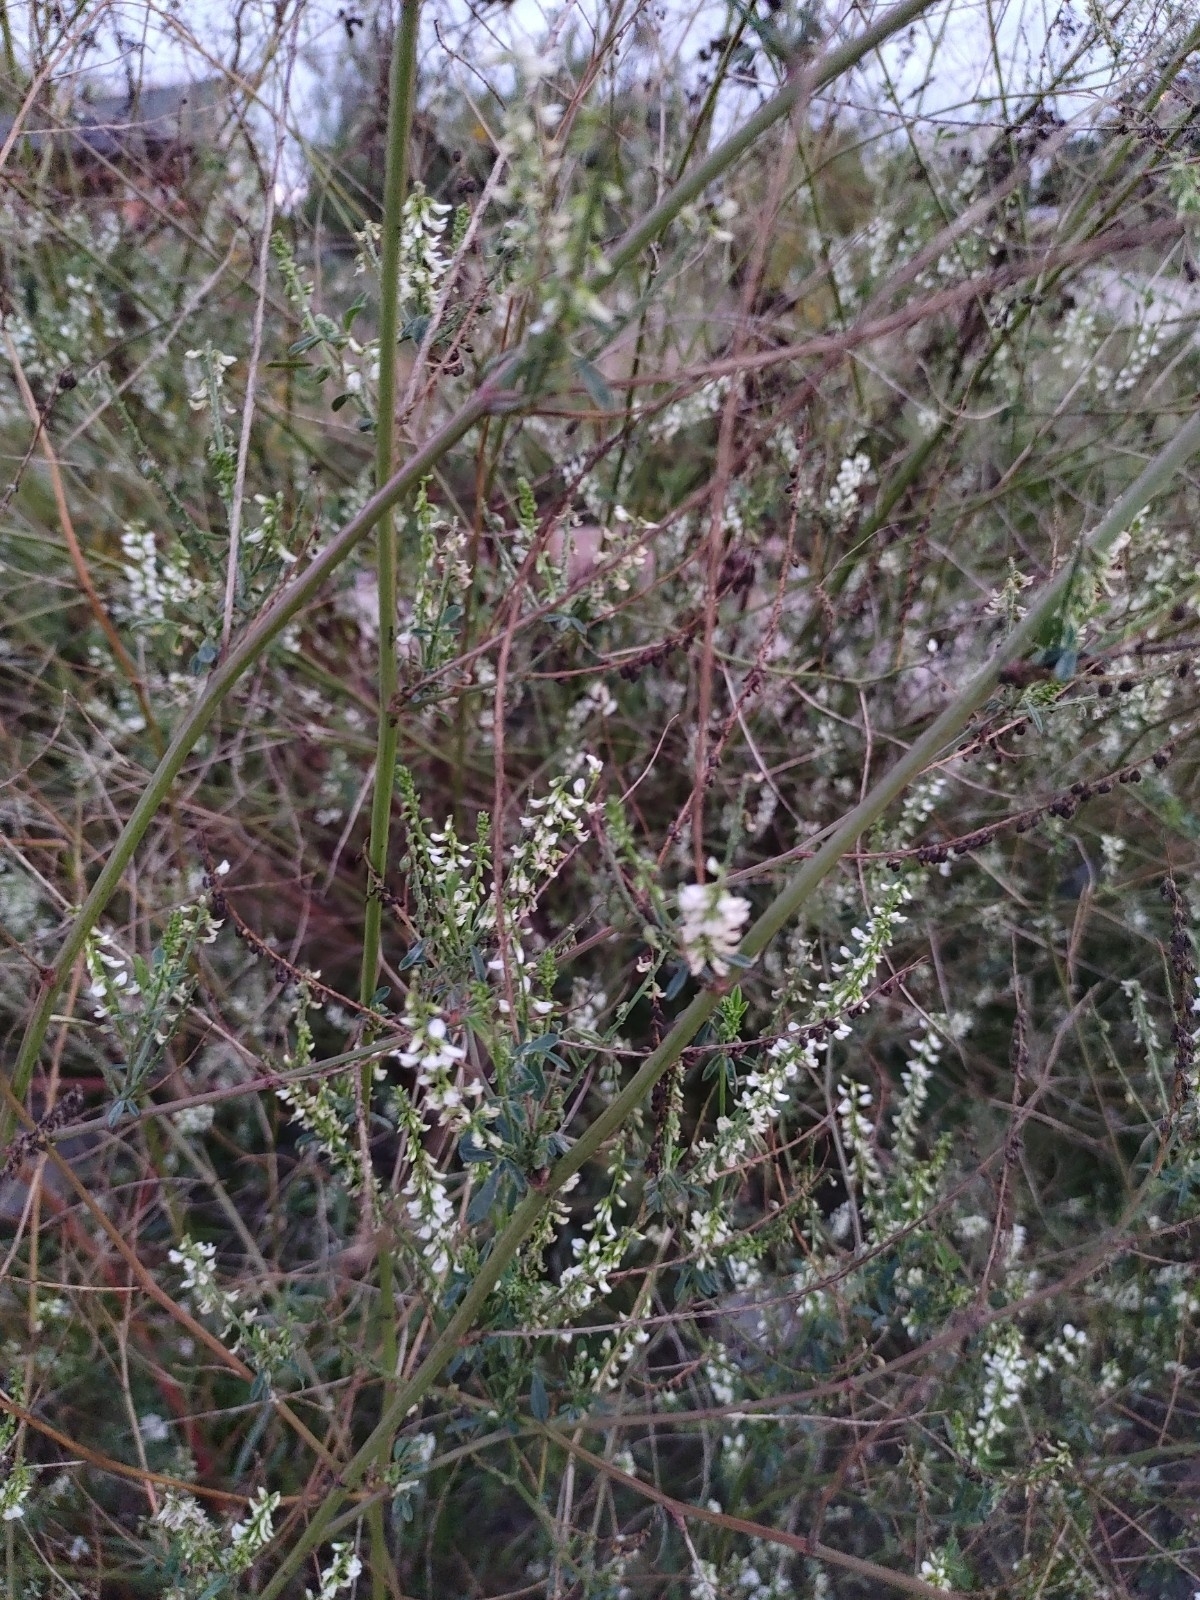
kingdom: Plantae
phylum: Tracheophyta
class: Magnoliopsida
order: Fabales
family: Fabaceae
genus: Melilotus
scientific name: Melilotus albus
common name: White melilot
